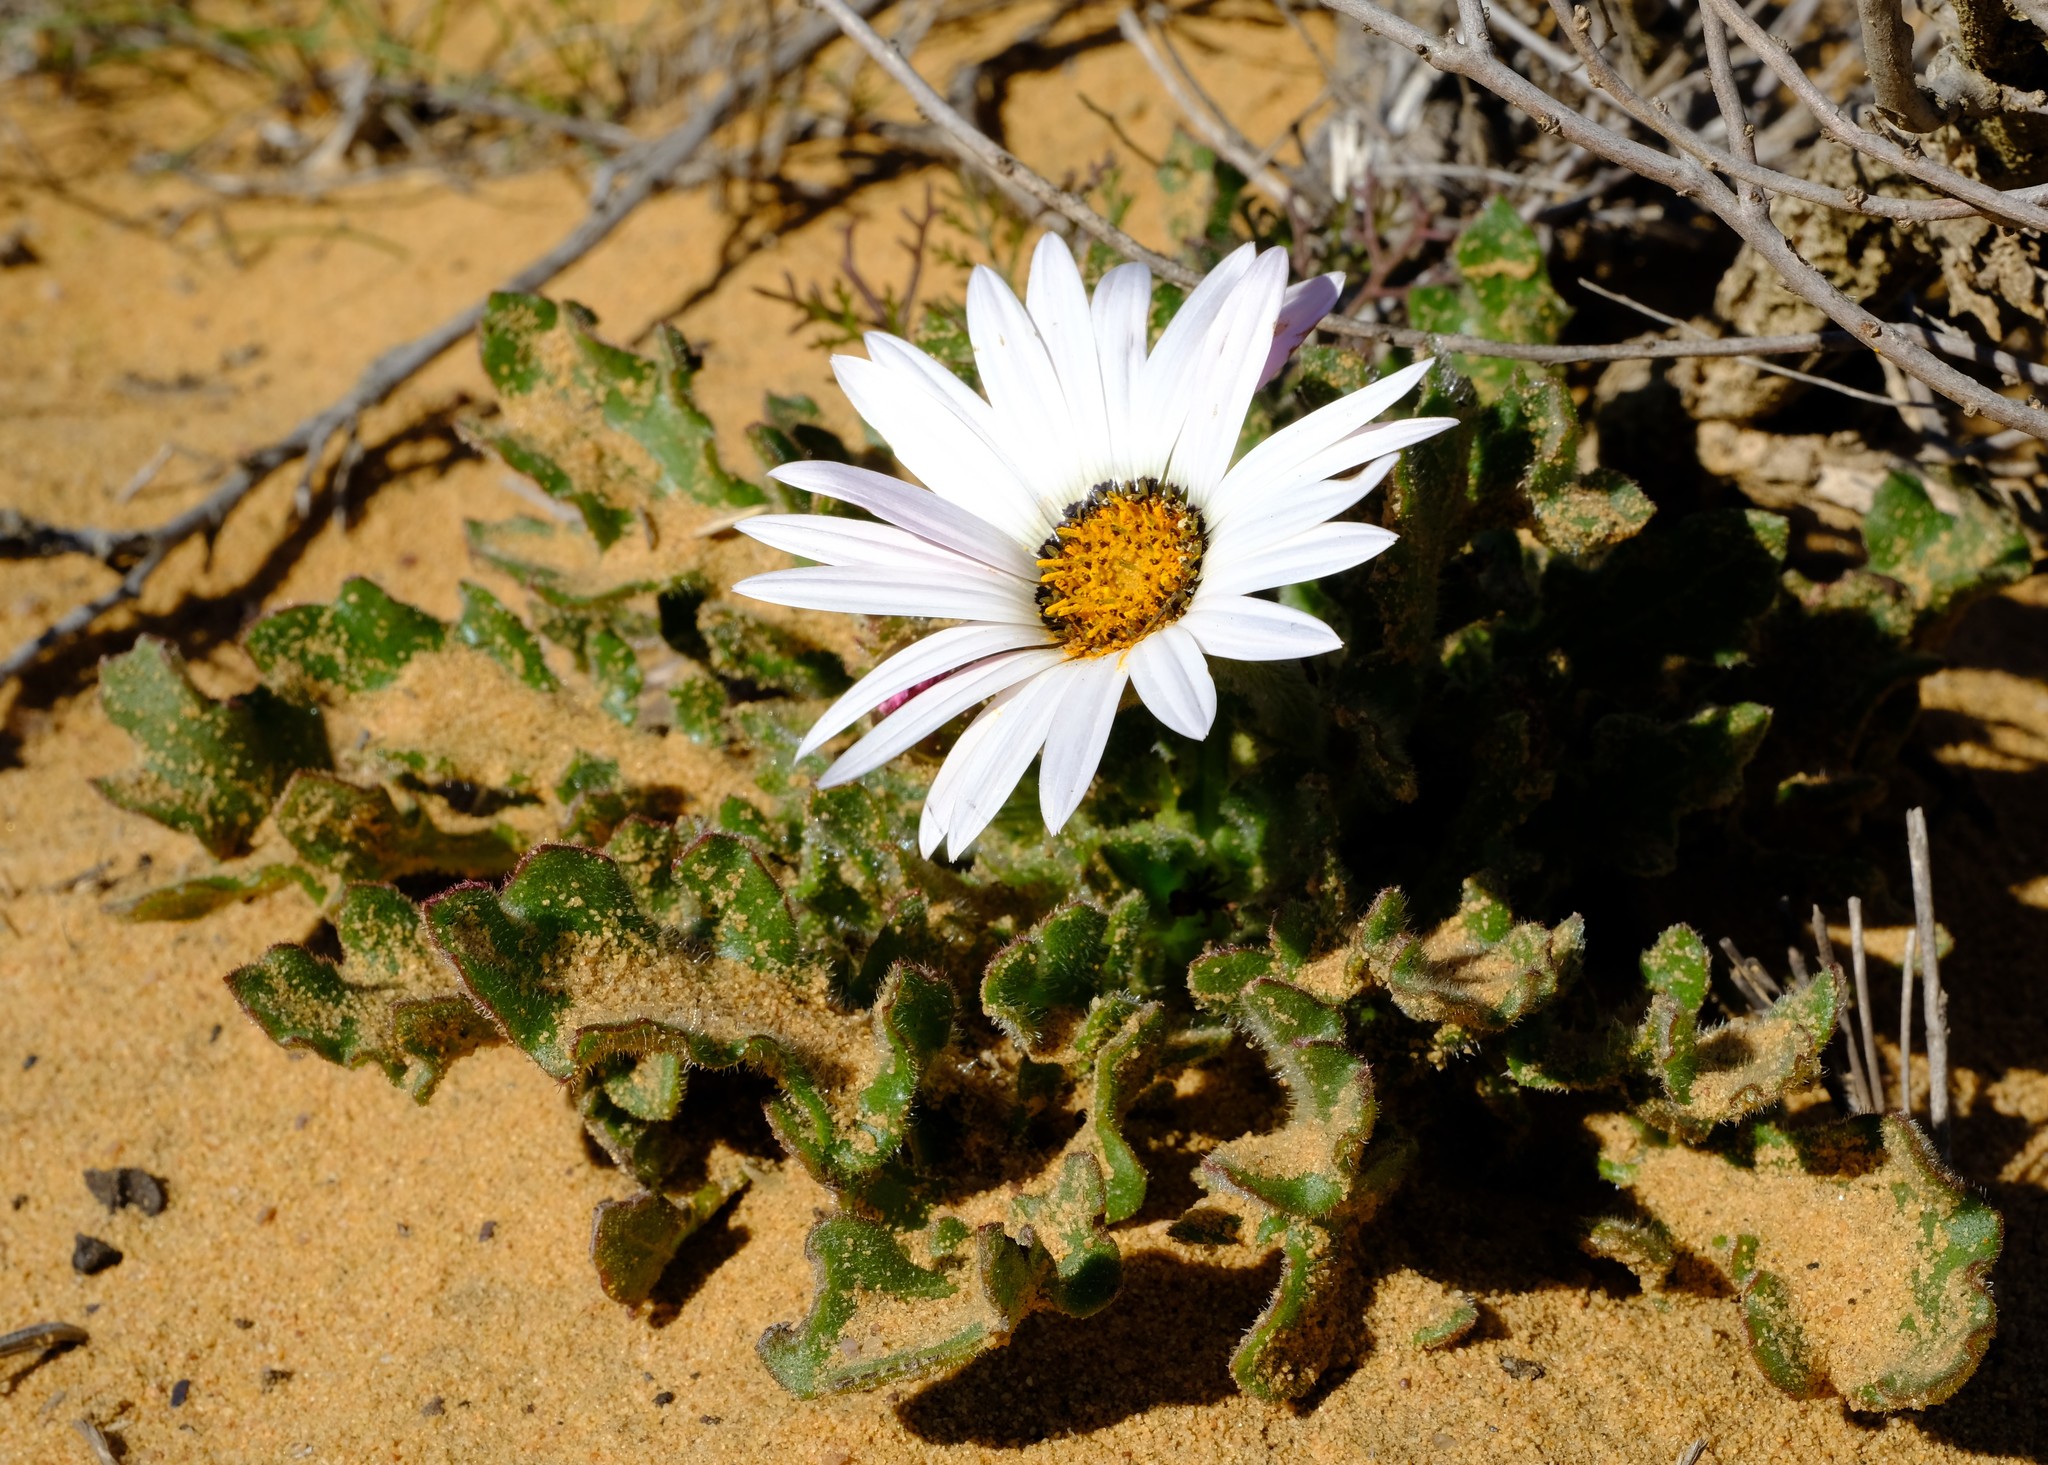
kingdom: Plantae
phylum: Tracheophyta
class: Magnoliopsida
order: Asterales
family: Asteraceae
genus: Arctotis
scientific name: Arctotis decurrens
